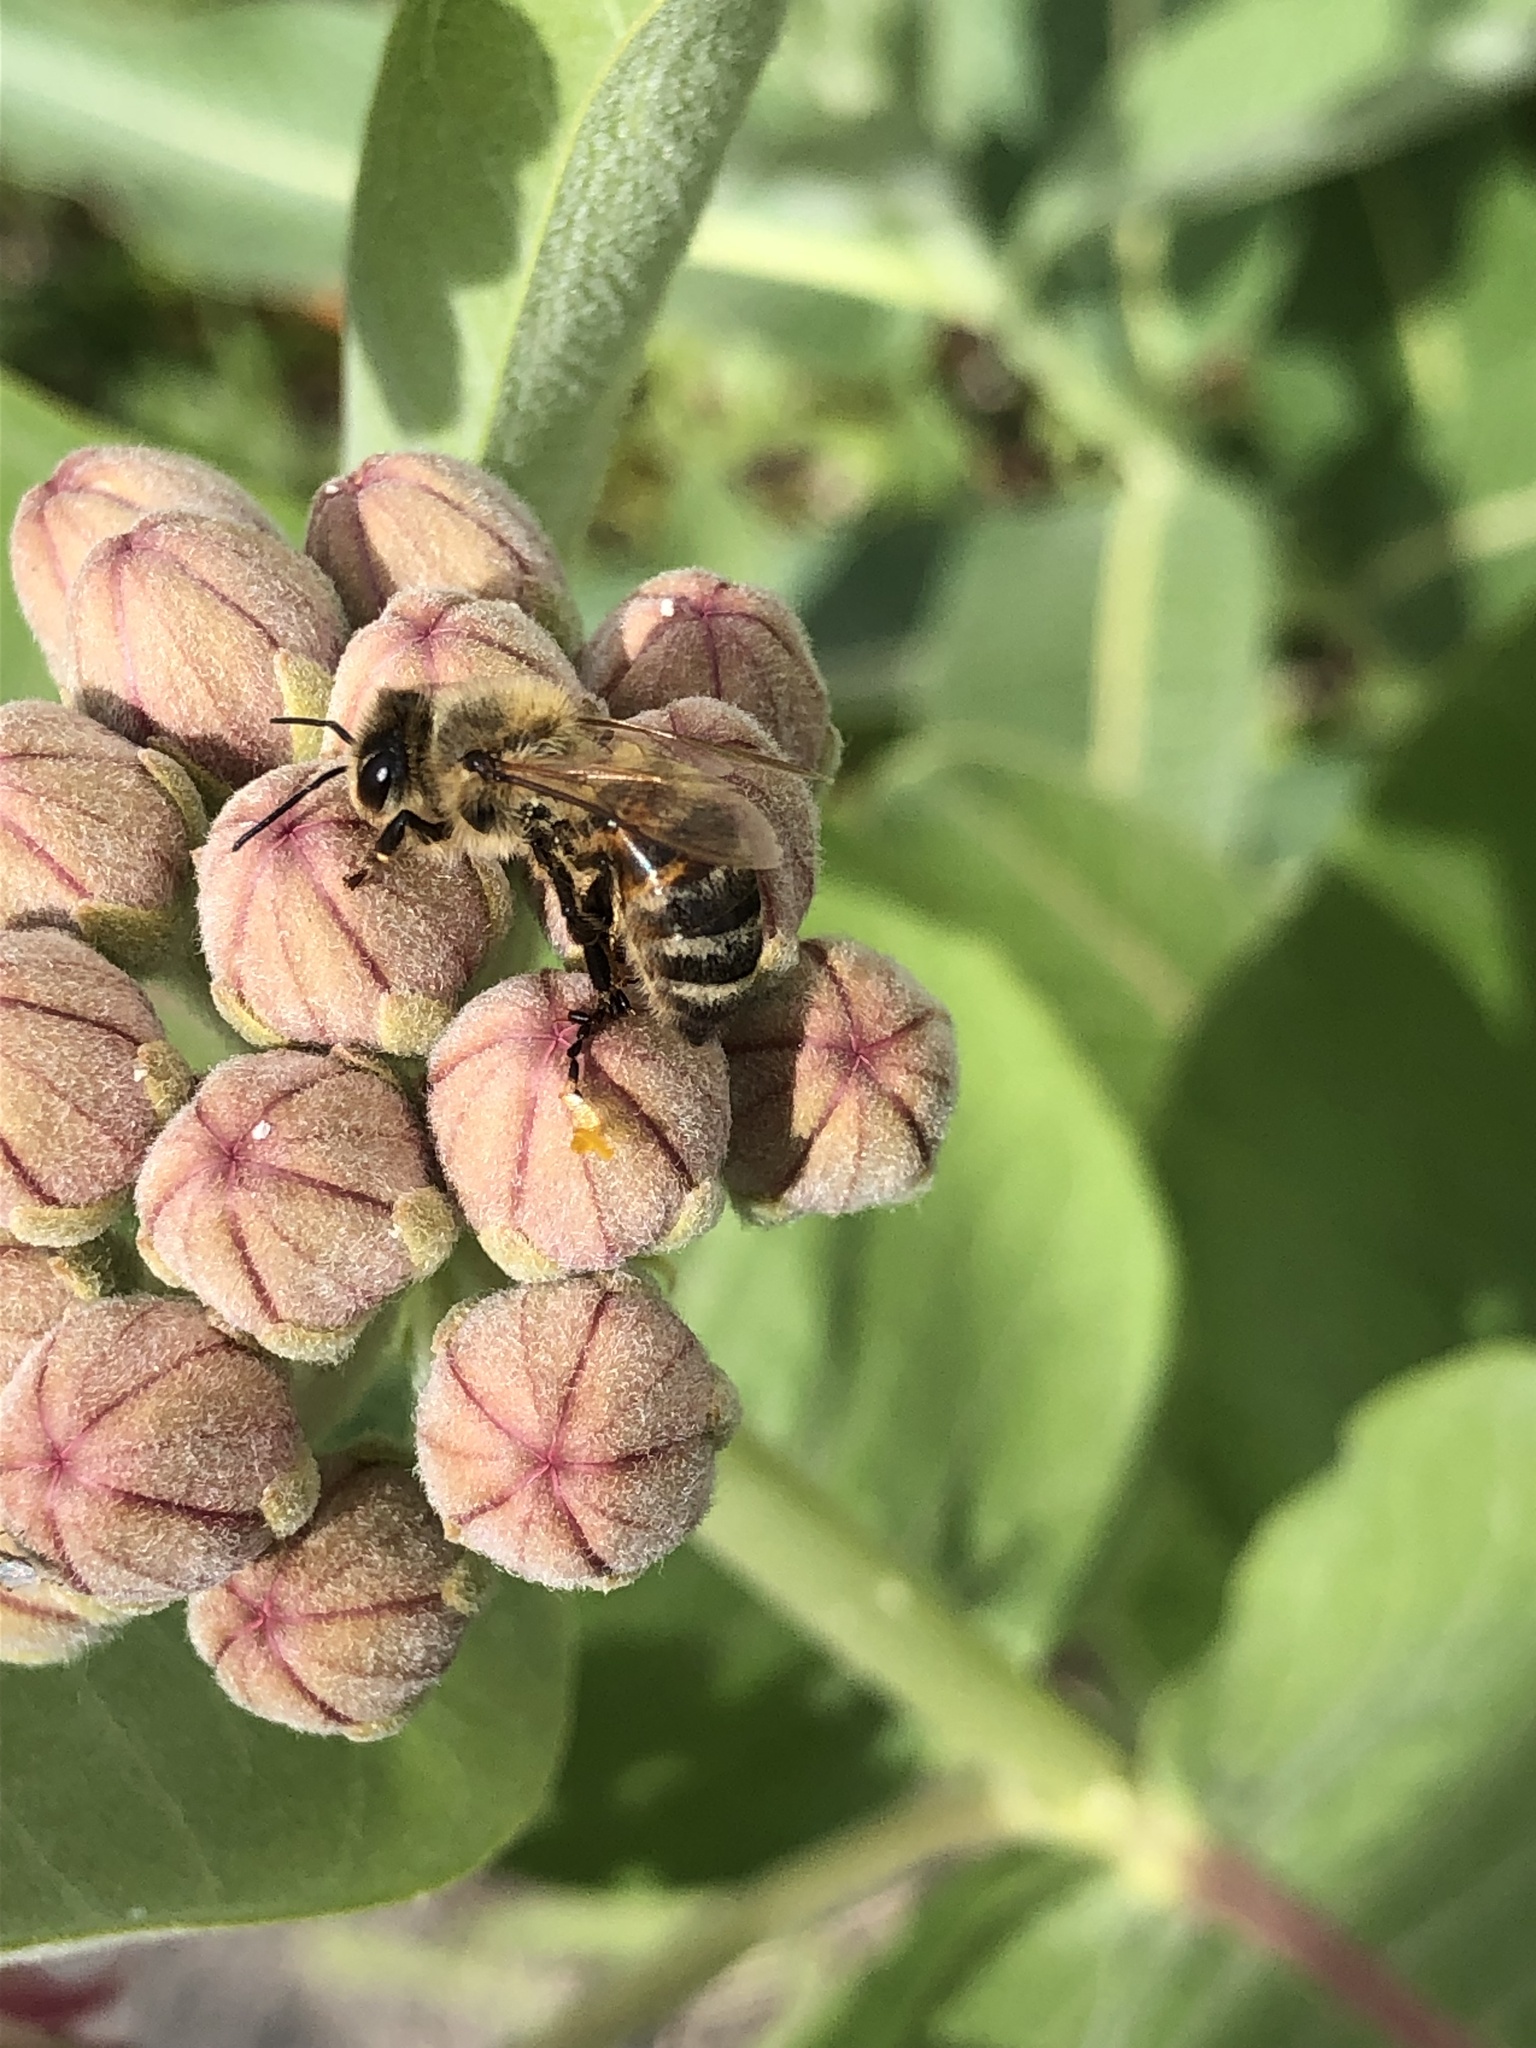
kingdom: Animalia
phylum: Arthropoda
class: Insecta
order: Hymenoptera
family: Apidae
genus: Apis
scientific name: Apis mellifera
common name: Honey bee
